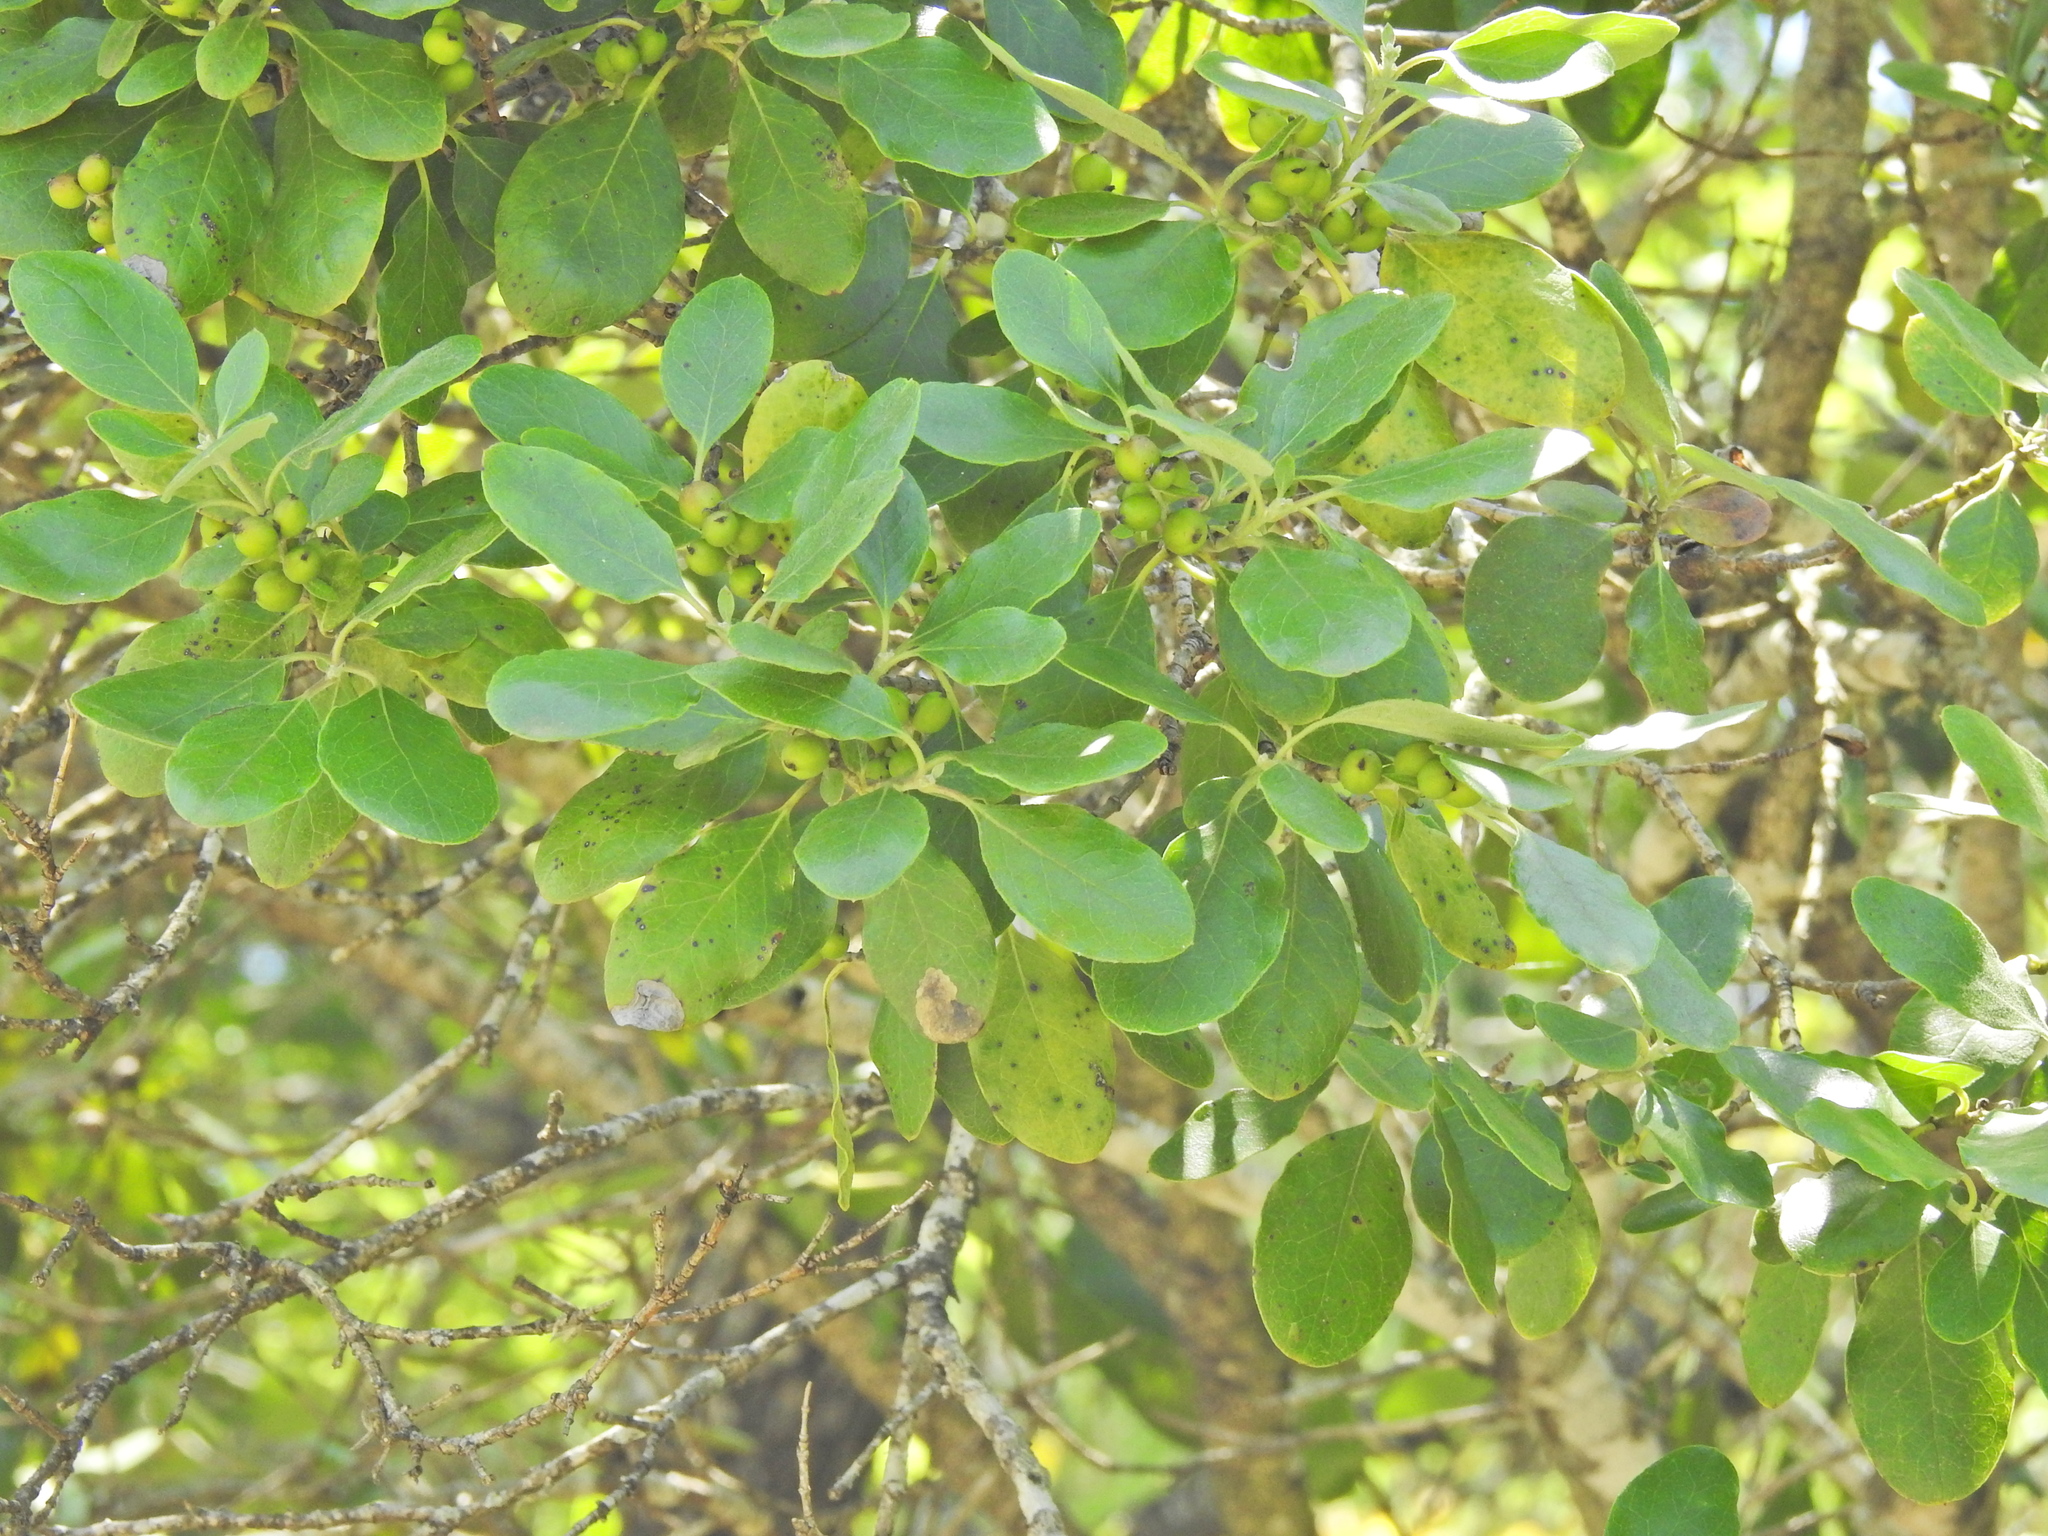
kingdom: Plantae
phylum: Tracheophyta
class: Magnoliopsida
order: Garryales
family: Garryaceae
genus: Garrya
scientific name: Garrya lindheimeri
